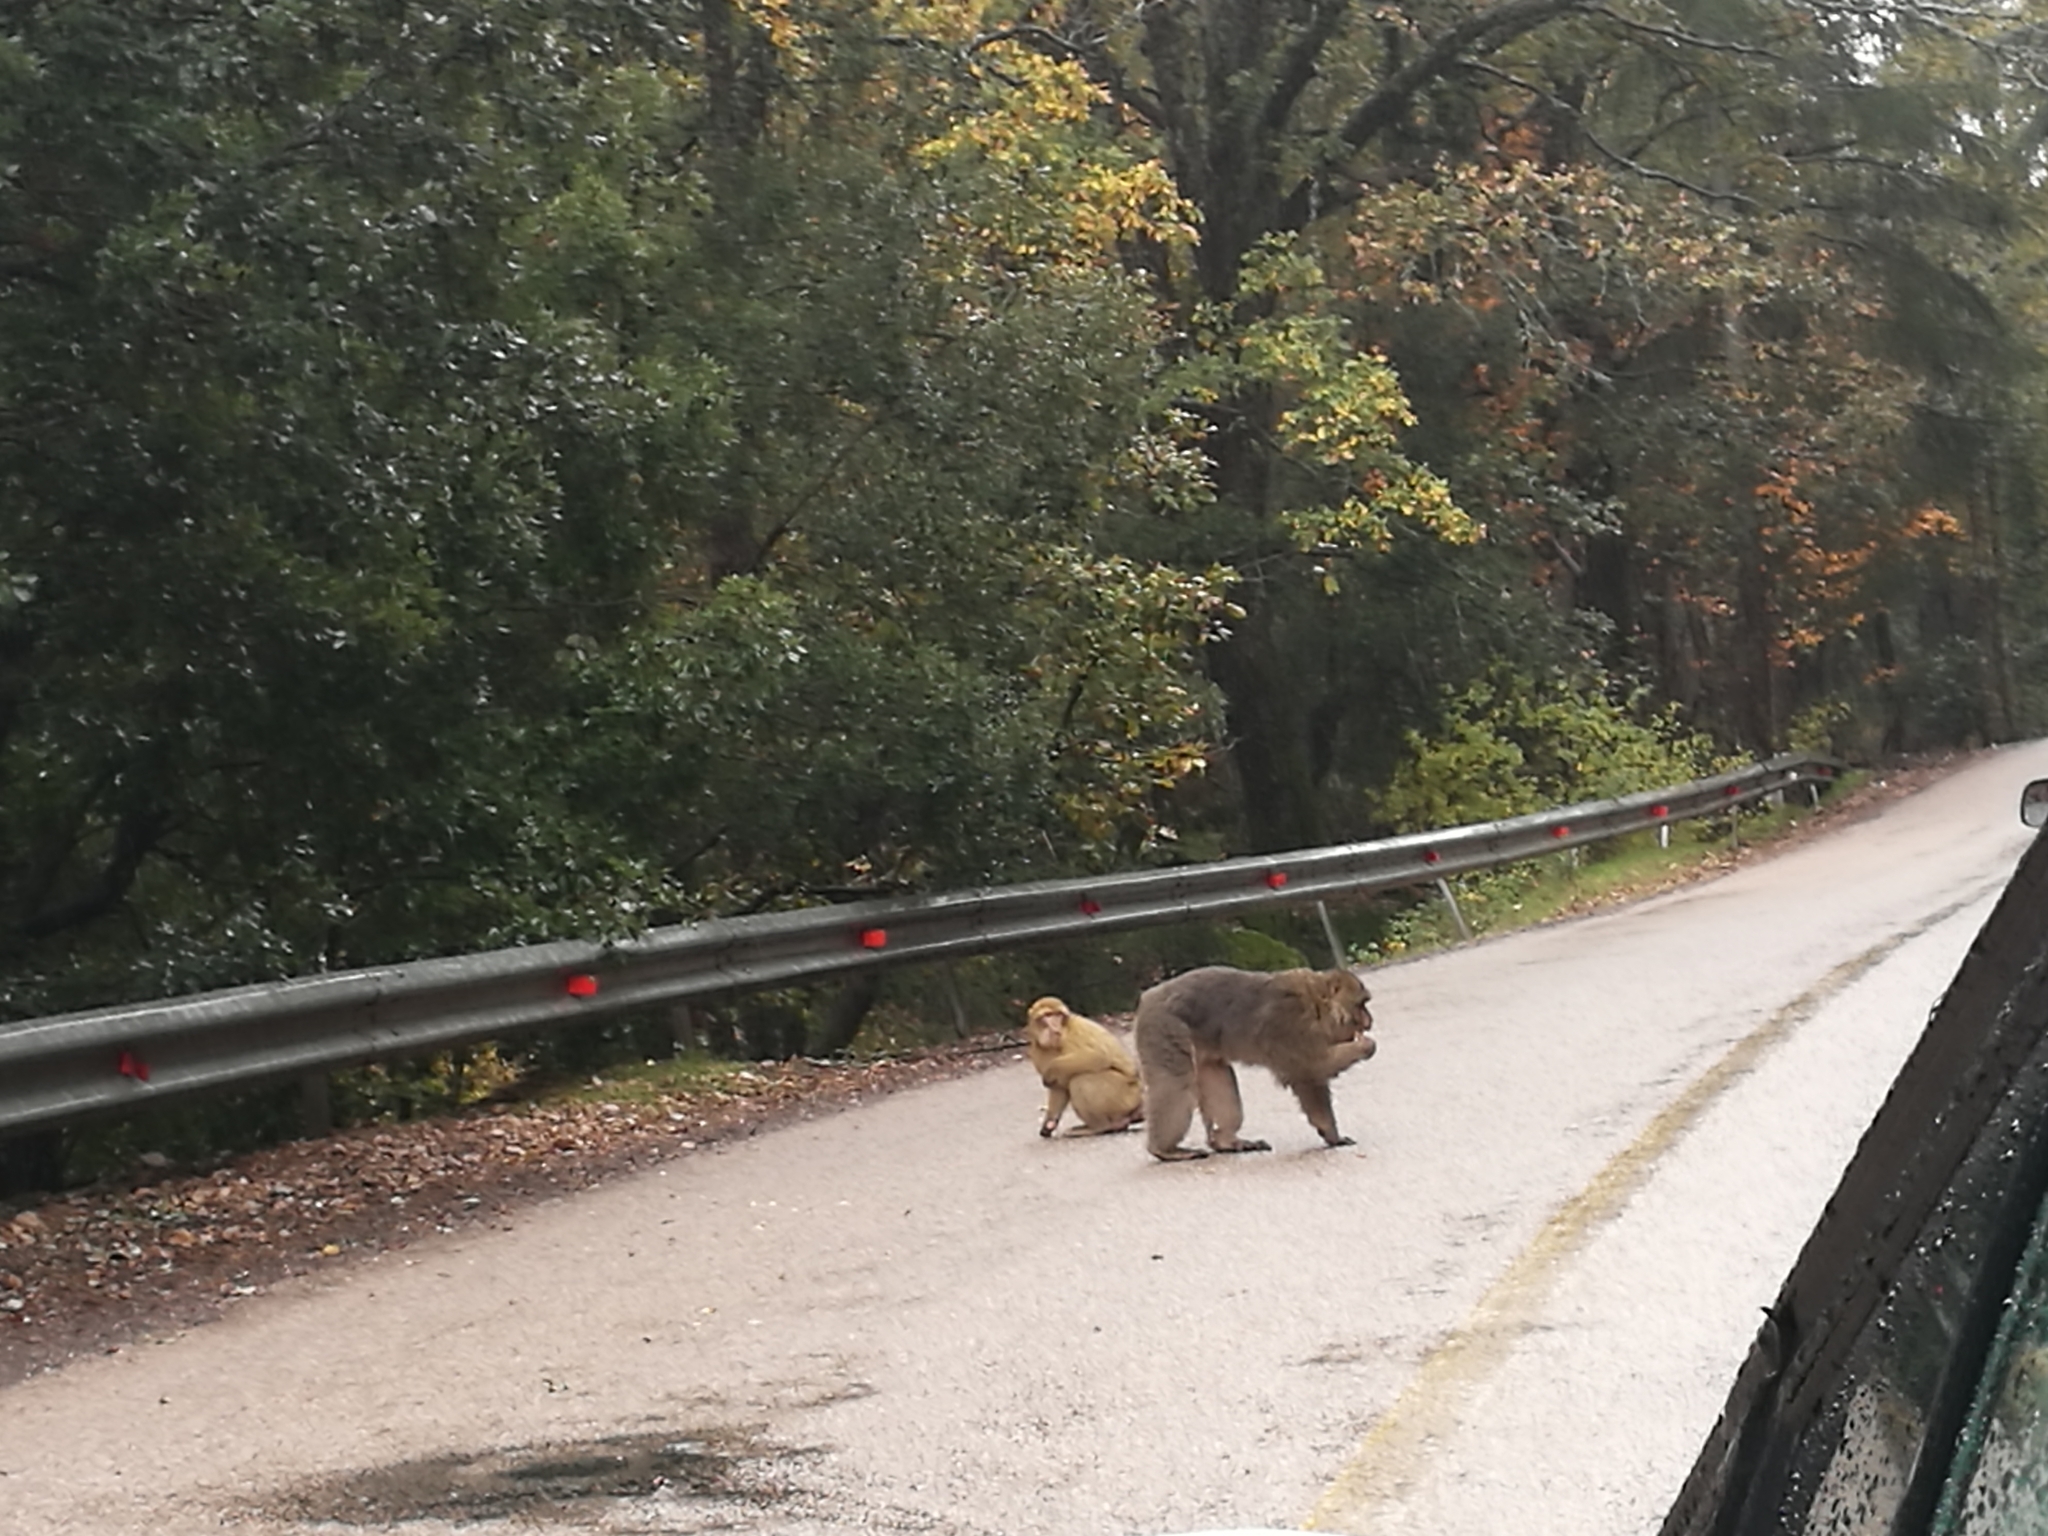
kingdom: Animalia
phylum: Chordata
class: Mammalia
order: Primates
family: Cercopithecidae
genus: Macaca
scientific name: Macaca sylvanus
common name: Barbary macaque
